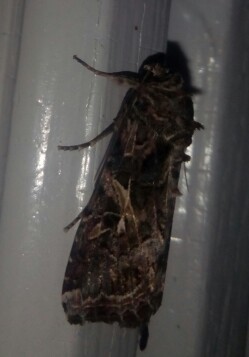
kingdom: Animalia
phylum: Arthropoda
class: Insecta
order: Lepidoptera
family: Noctuidae
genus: Spodoptera
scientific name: Spodoptera ornithogalli
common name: Yellow-striped armyworm
